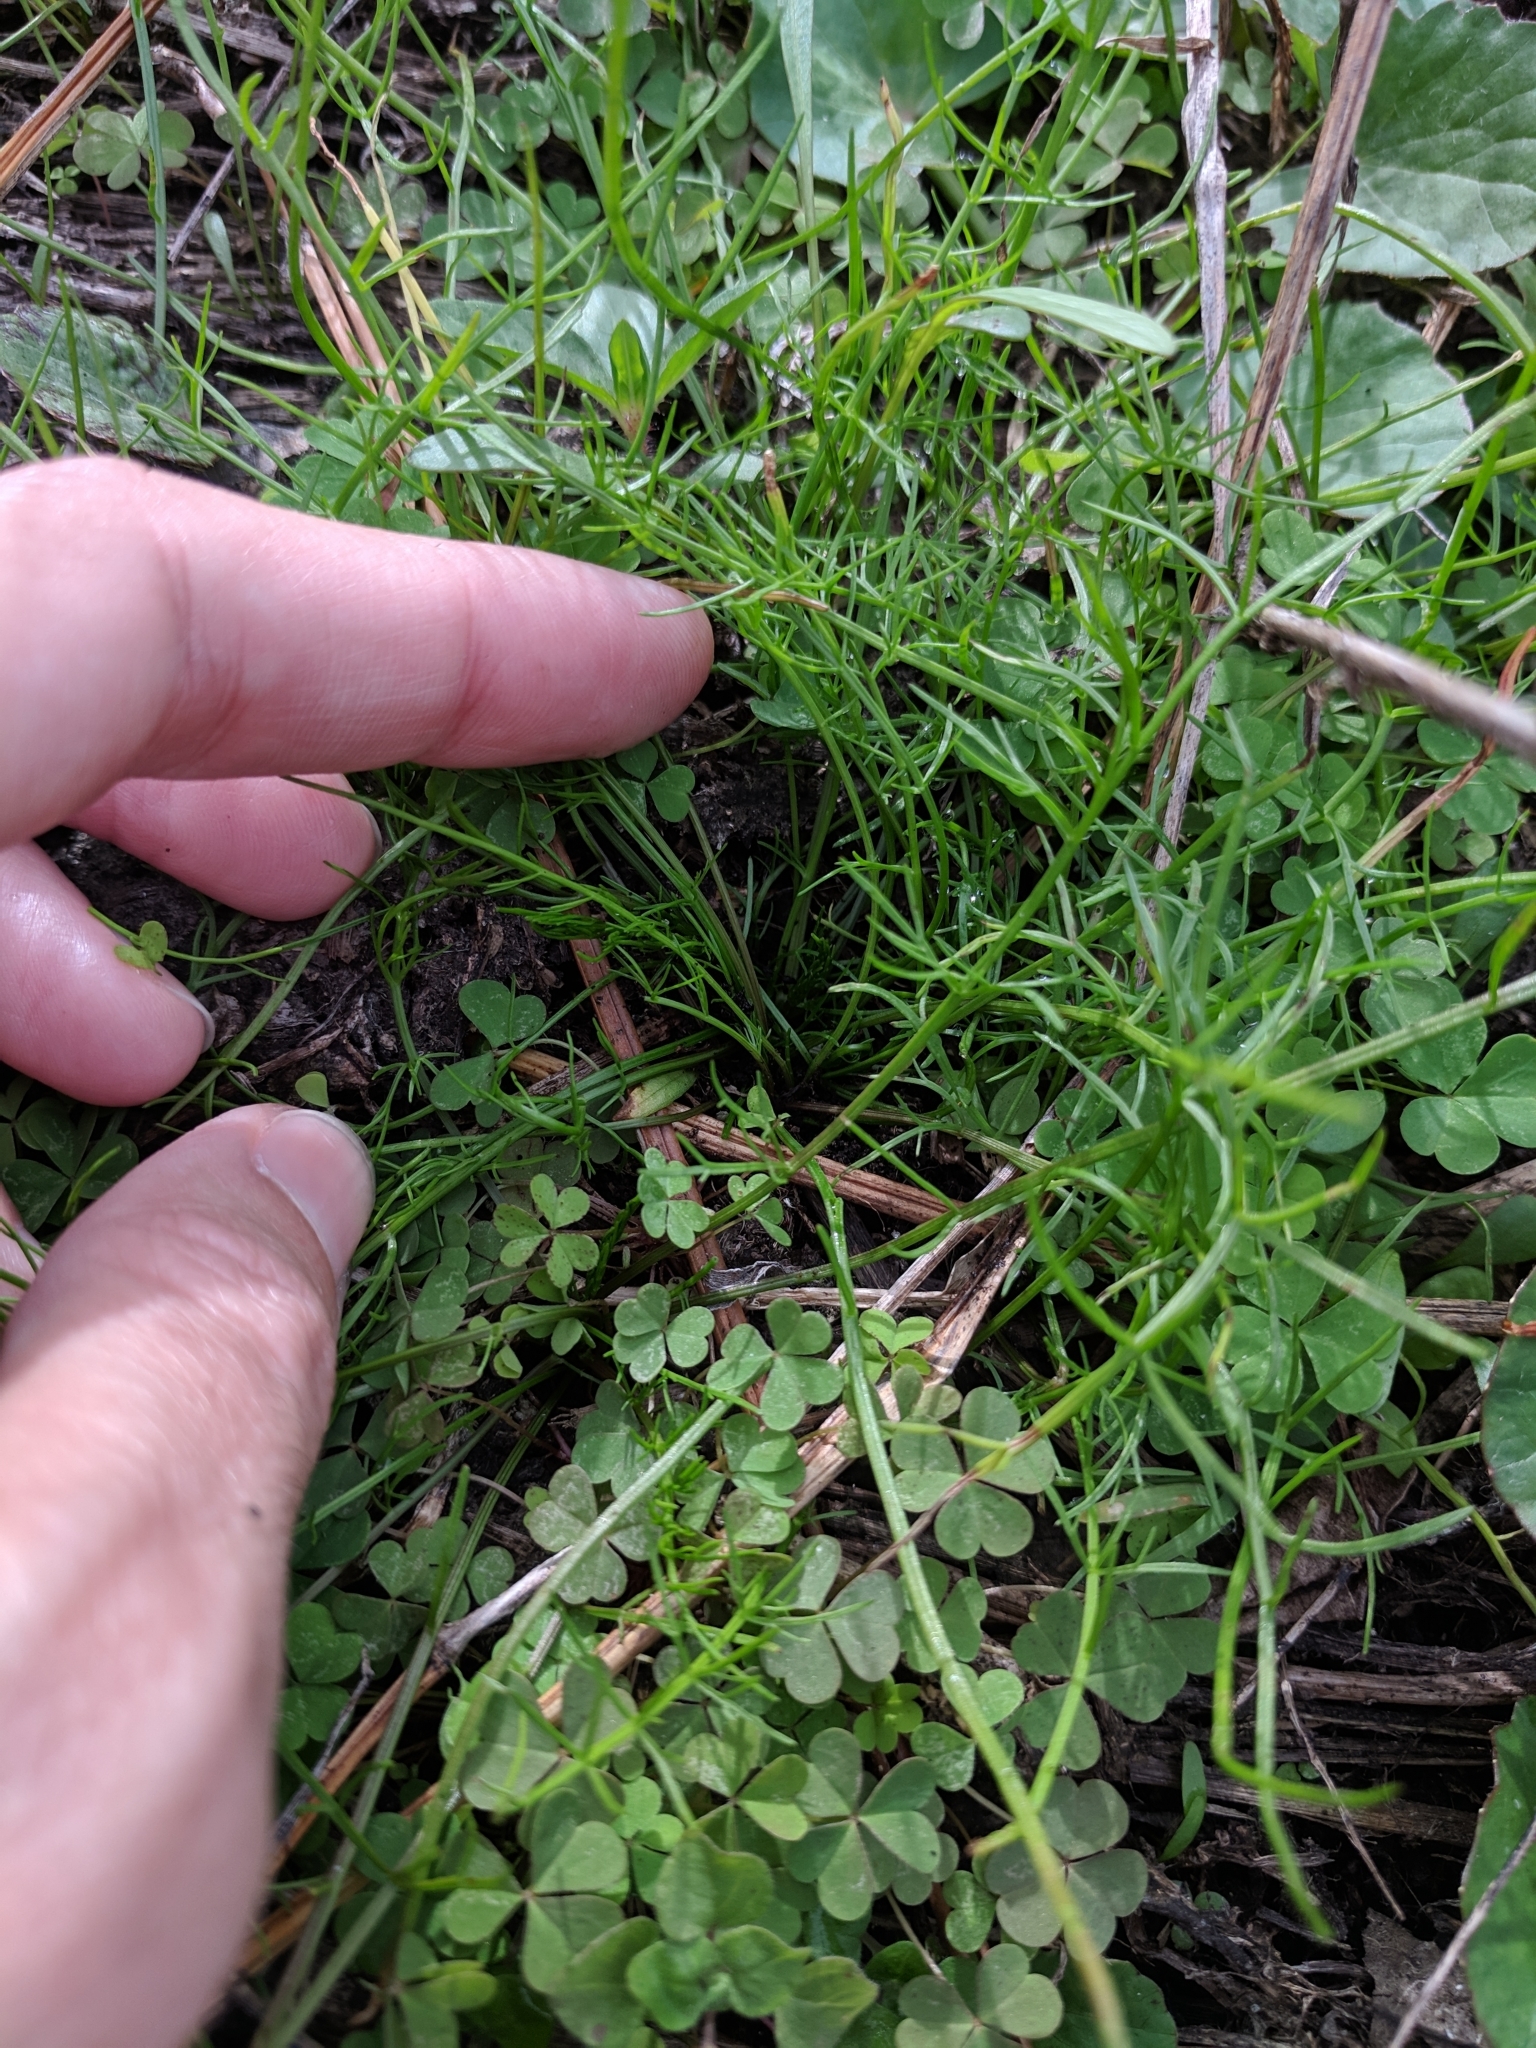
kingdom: Plantae
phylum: Tracheophyta
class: Magnoliopsida
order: Apiales
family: Apiaceae
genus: Ptilimnium
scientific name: Ptilimnium capillaceum
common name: Herbwilliam
